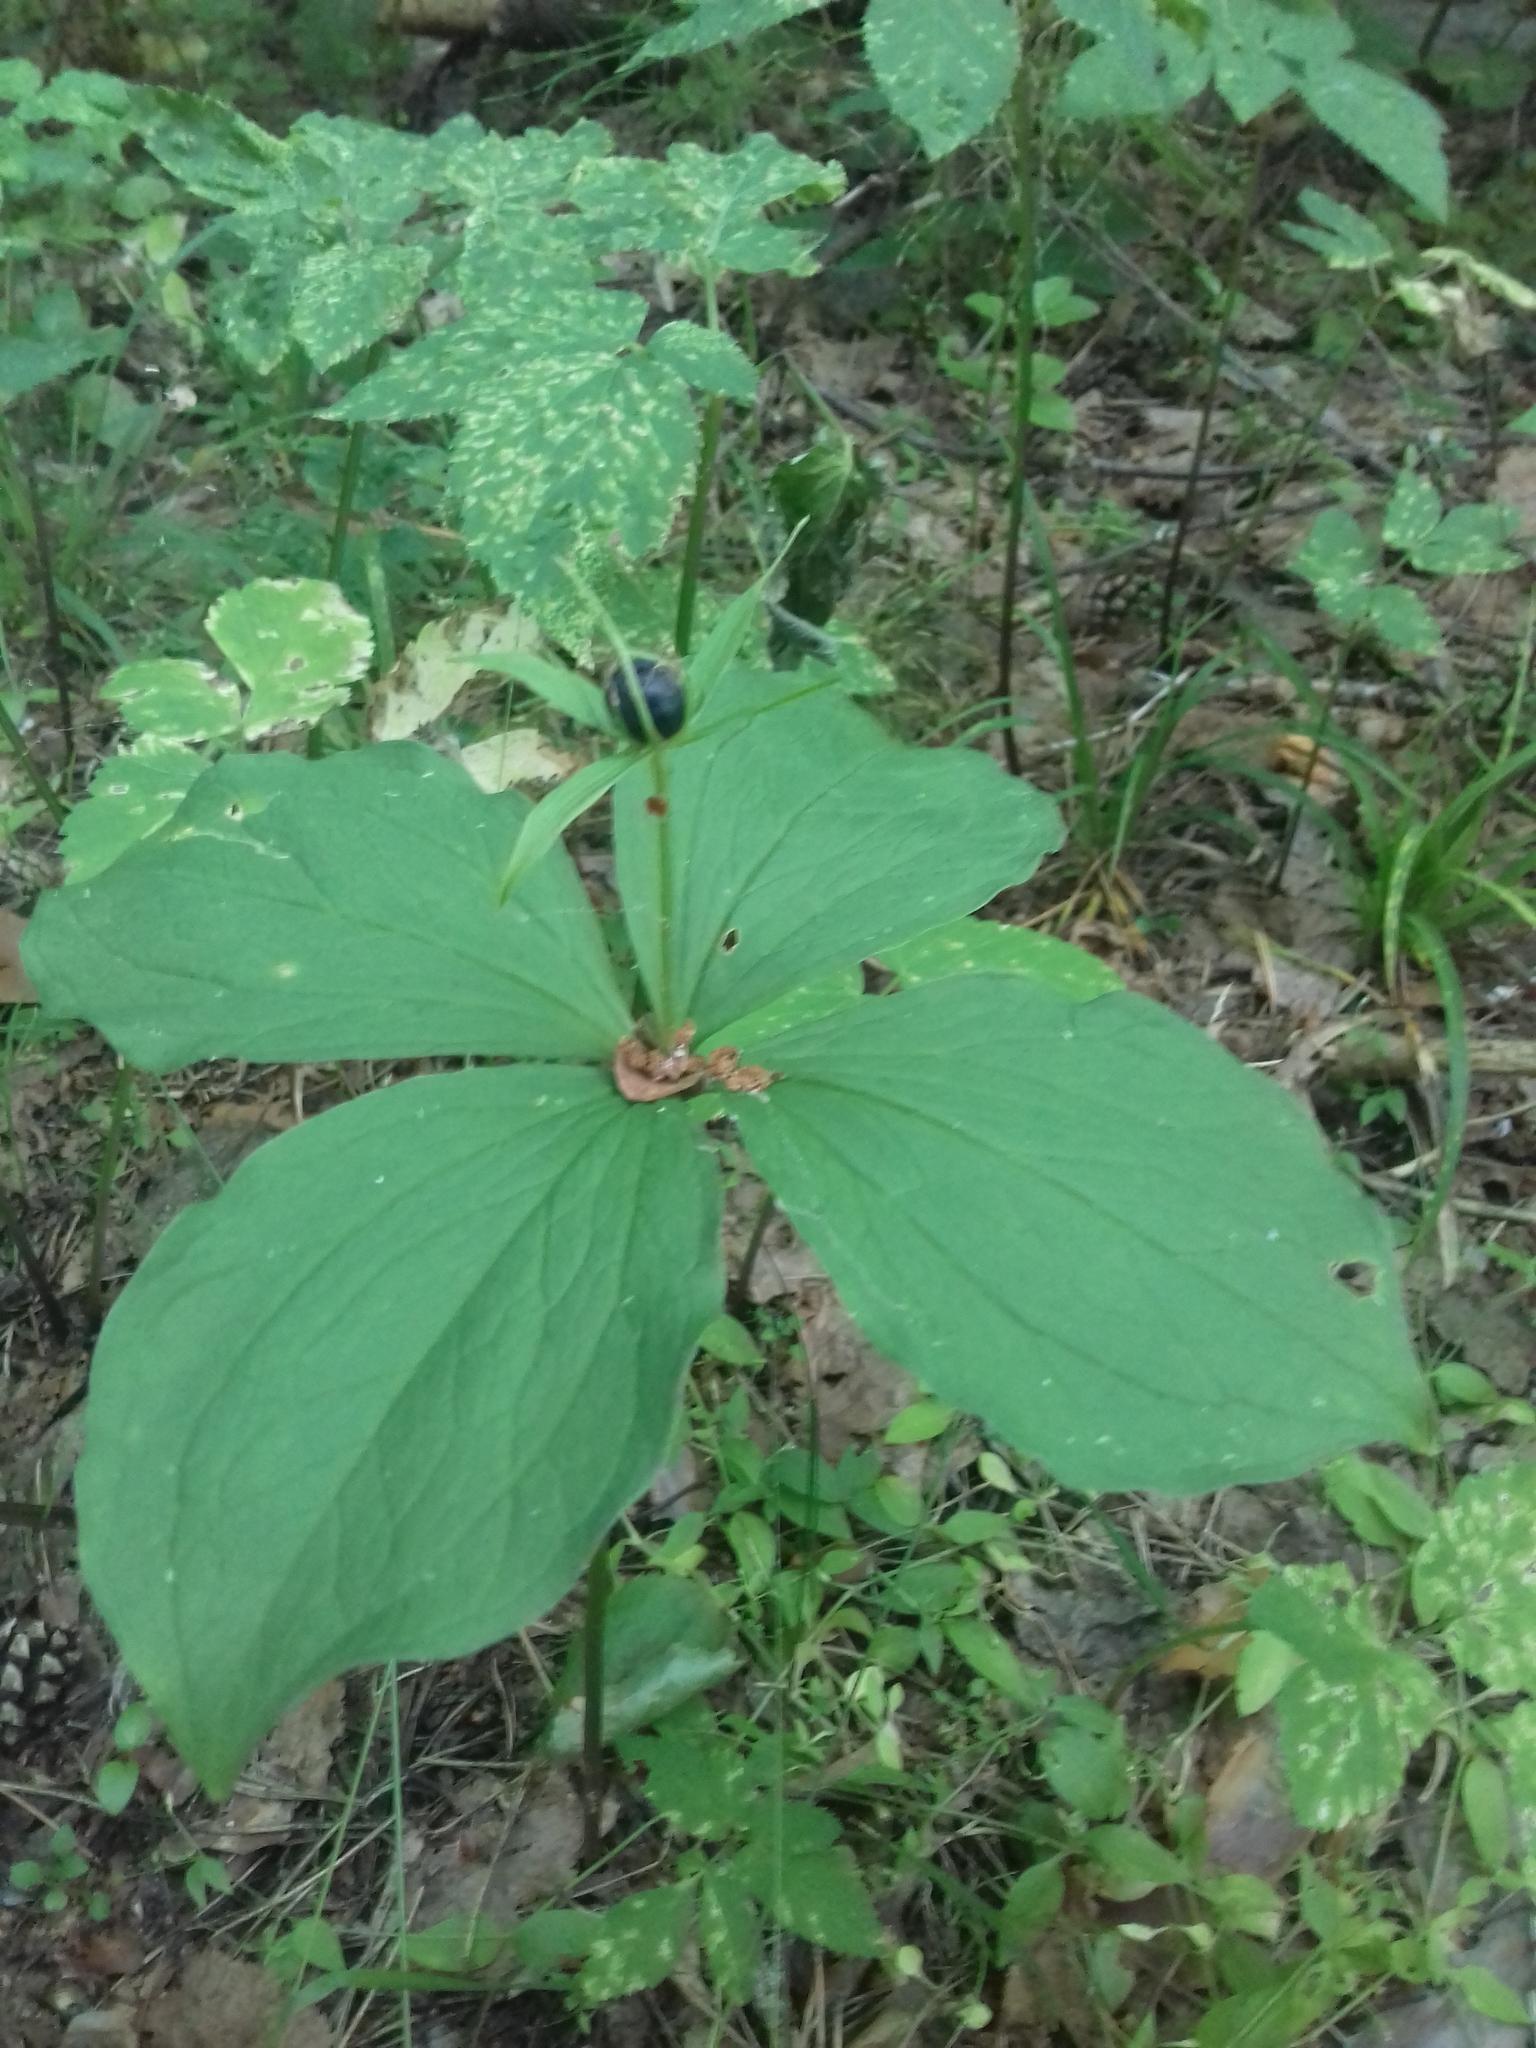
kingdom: Plantae
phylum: Tracheophyta
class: Liliopsida
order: Liliales
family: Melanthiaceae
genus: Paris
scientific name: Paris quadrifolia
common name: Herb-paris
